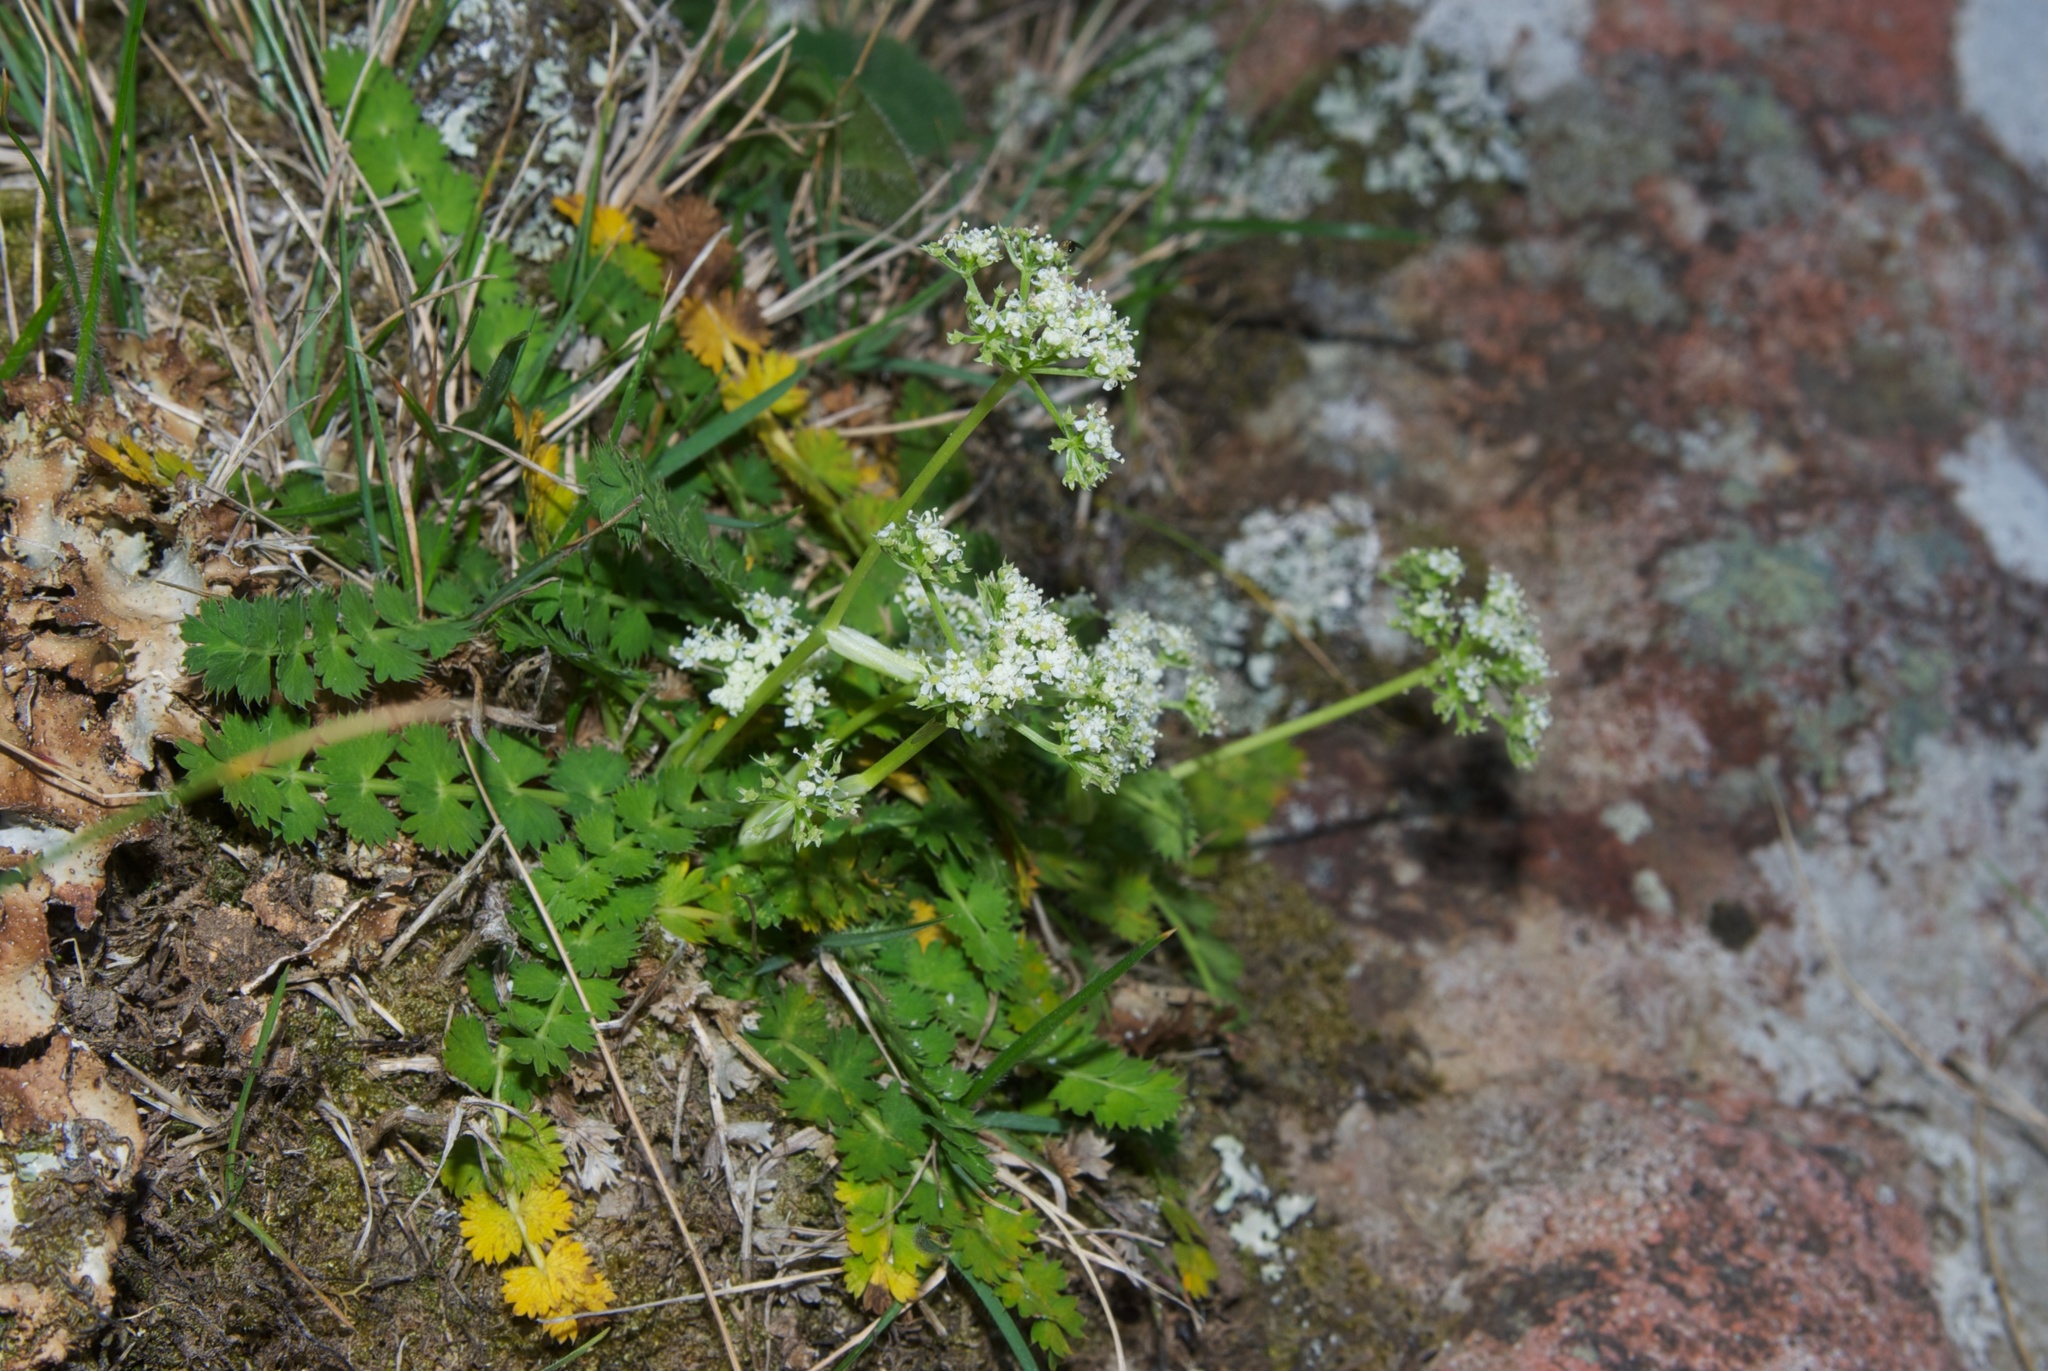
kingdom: Plantae
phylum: Tracheophyta
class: Magnoliopsida
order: Apiales
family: Apiaceae
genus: Anisotome
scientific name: Anisotome aromatica
